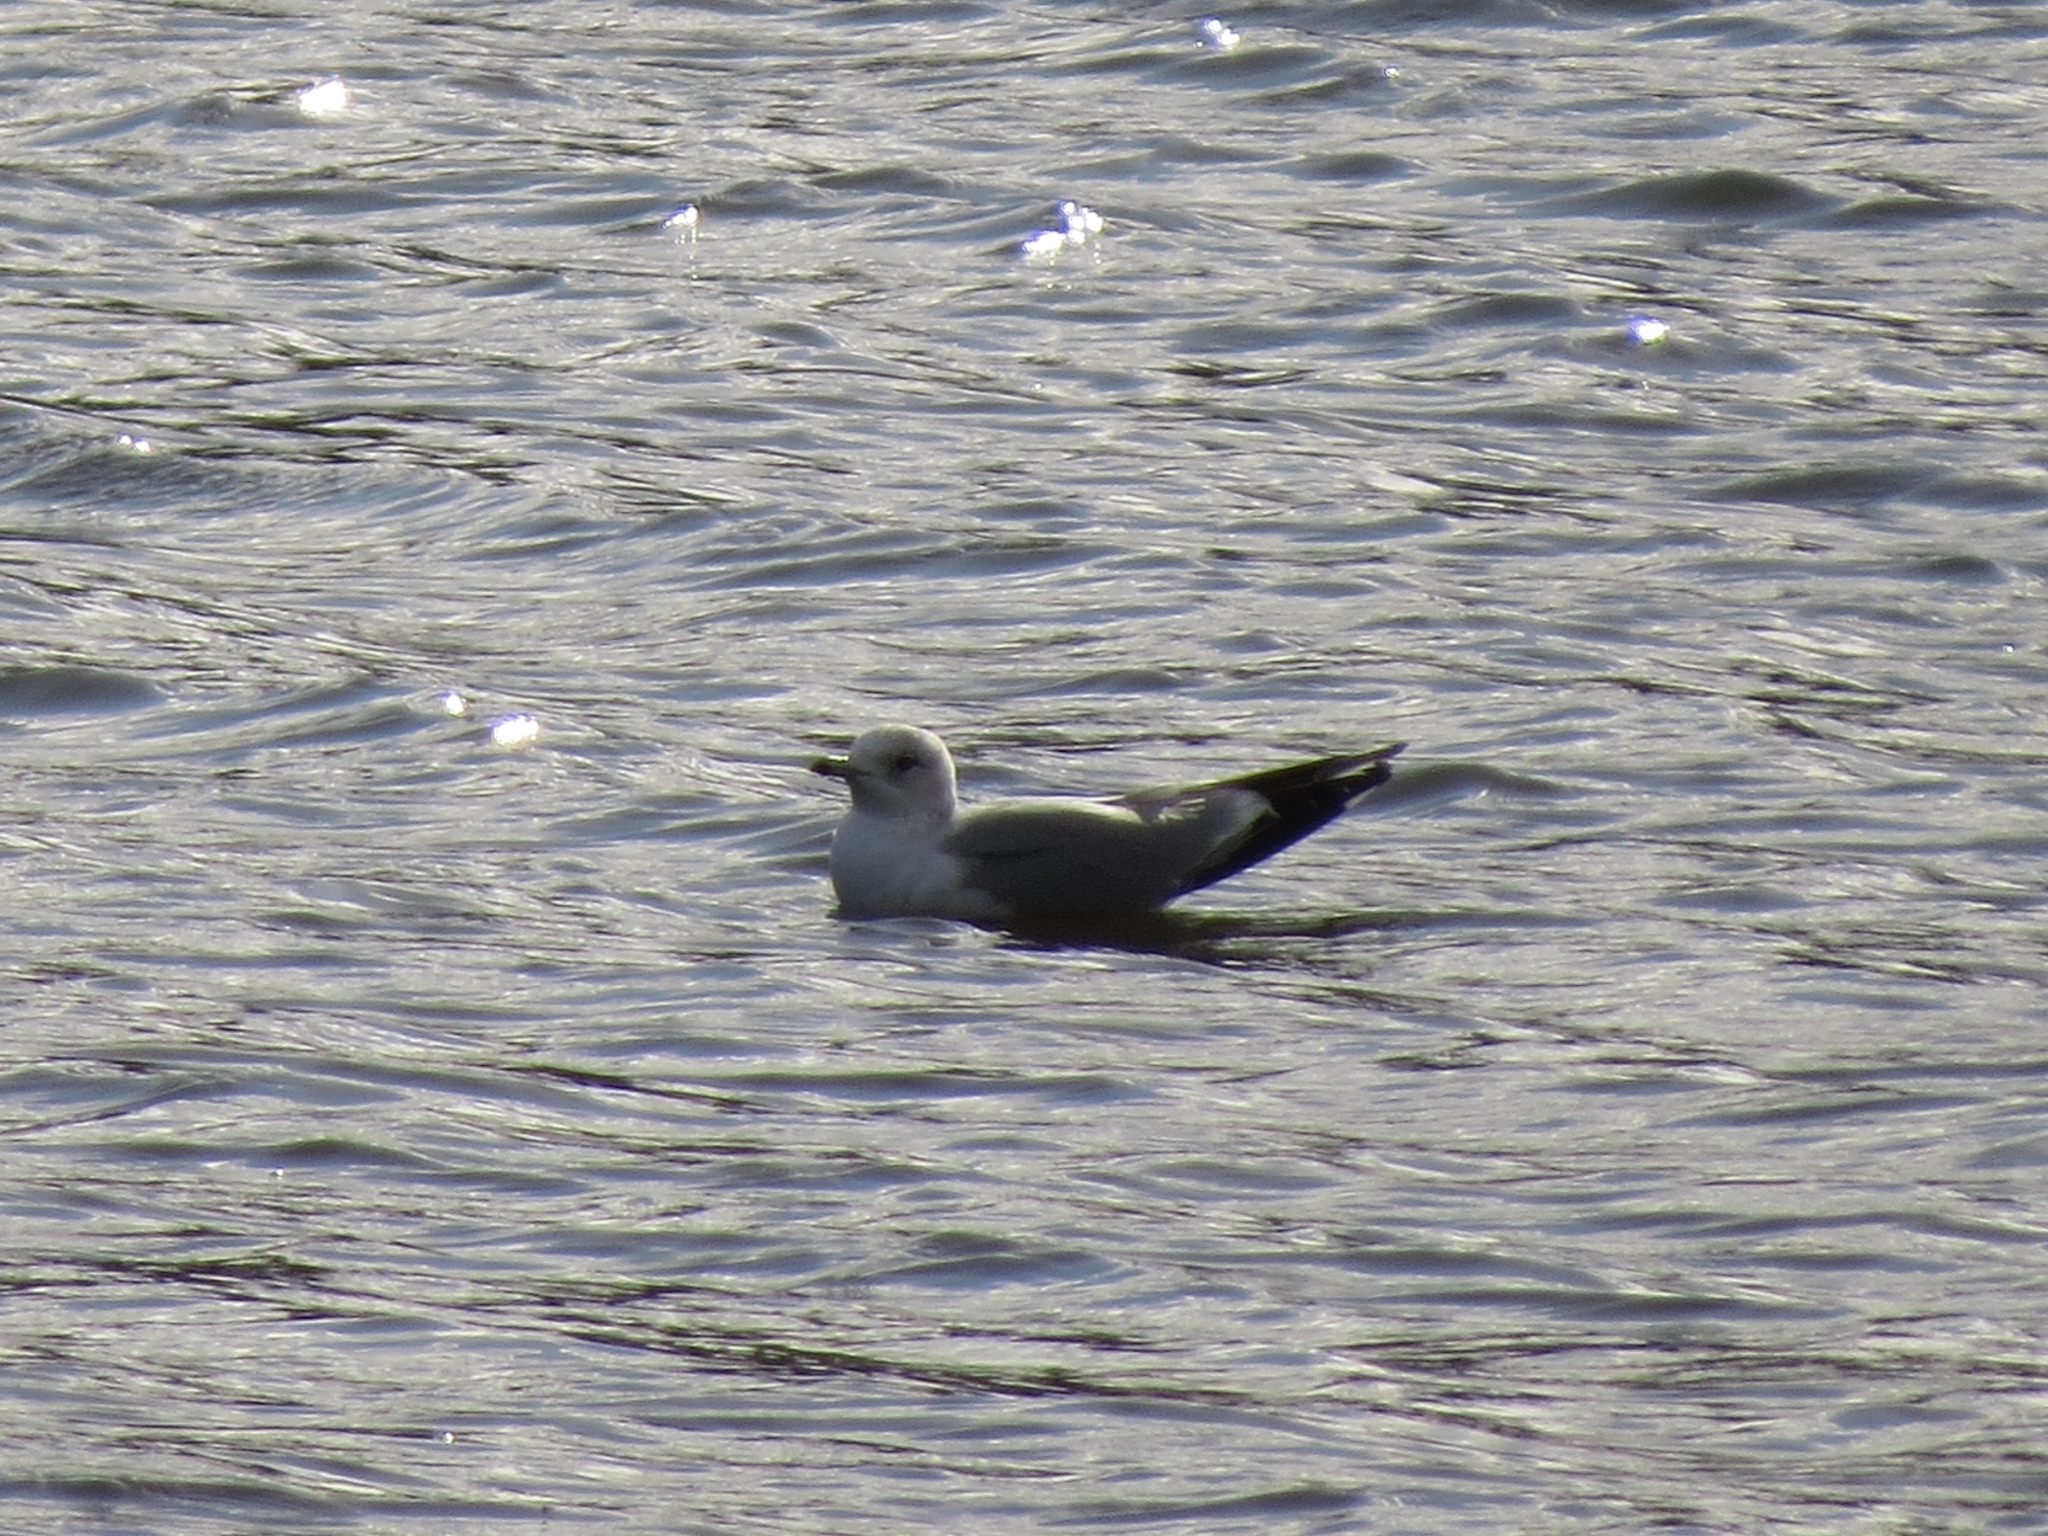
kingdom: Animalia
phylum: Chordata
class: Aves
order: Charadriiformes
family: Laridae
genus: Larus
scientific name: Larus canus
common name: Mew gull
